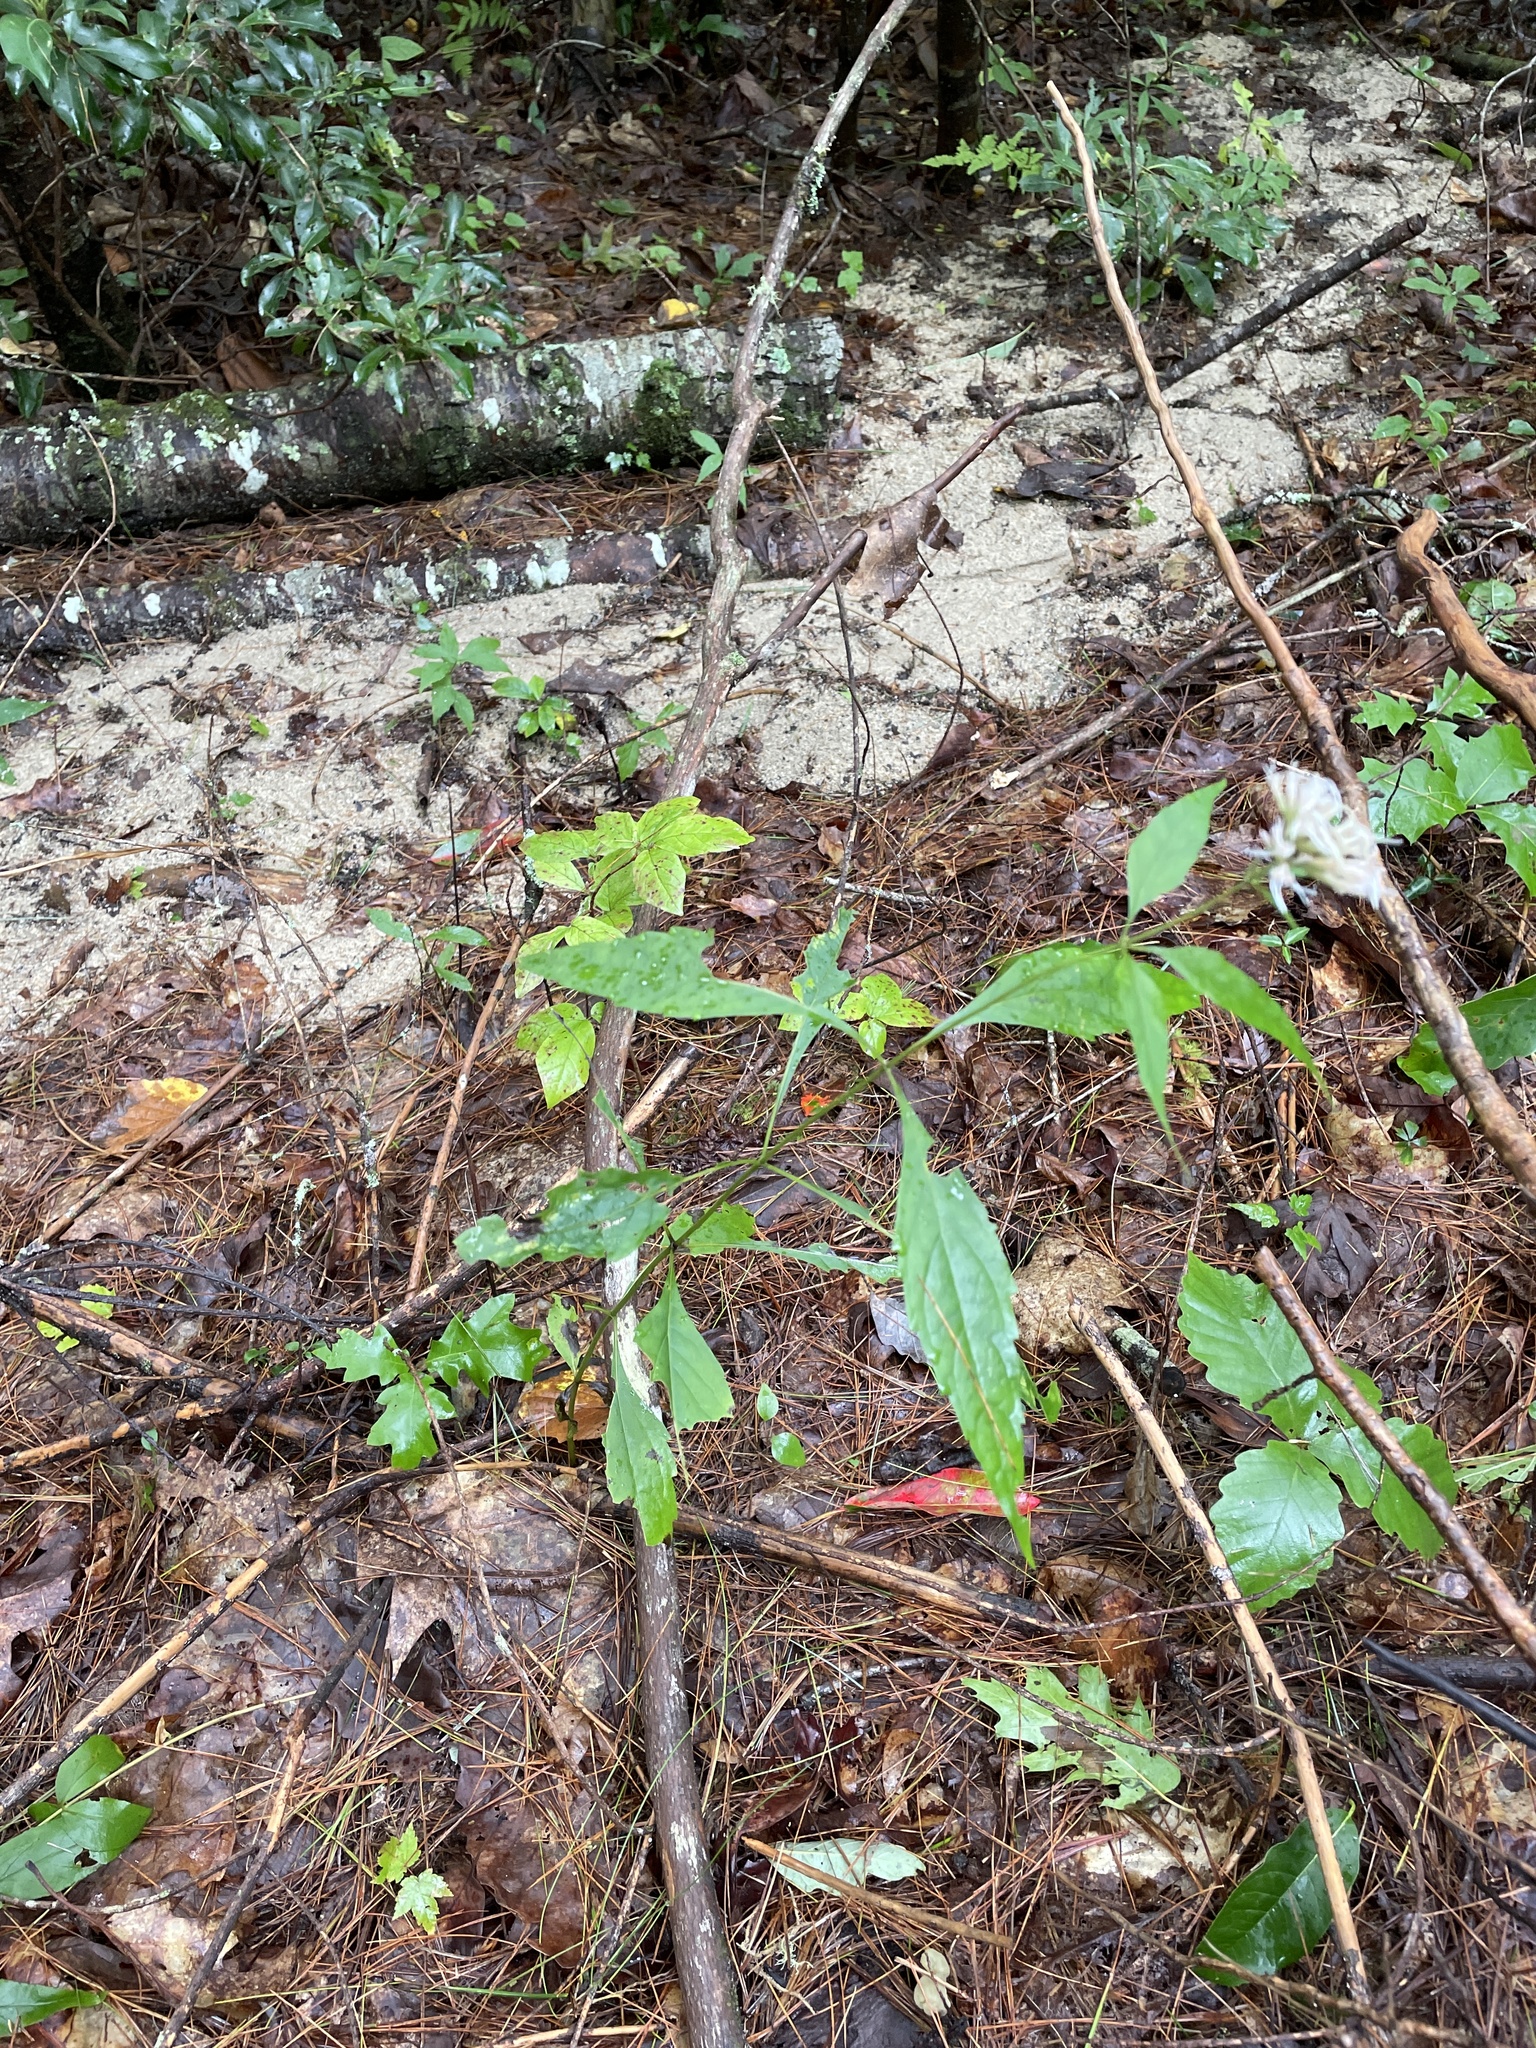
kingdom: Plantae
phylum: Tracheophyta
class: Magnoliopsida
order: Asterales
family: Asteraceae
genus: Eutrochium
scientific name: Eutrochium purpureum
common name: Gravelroot
